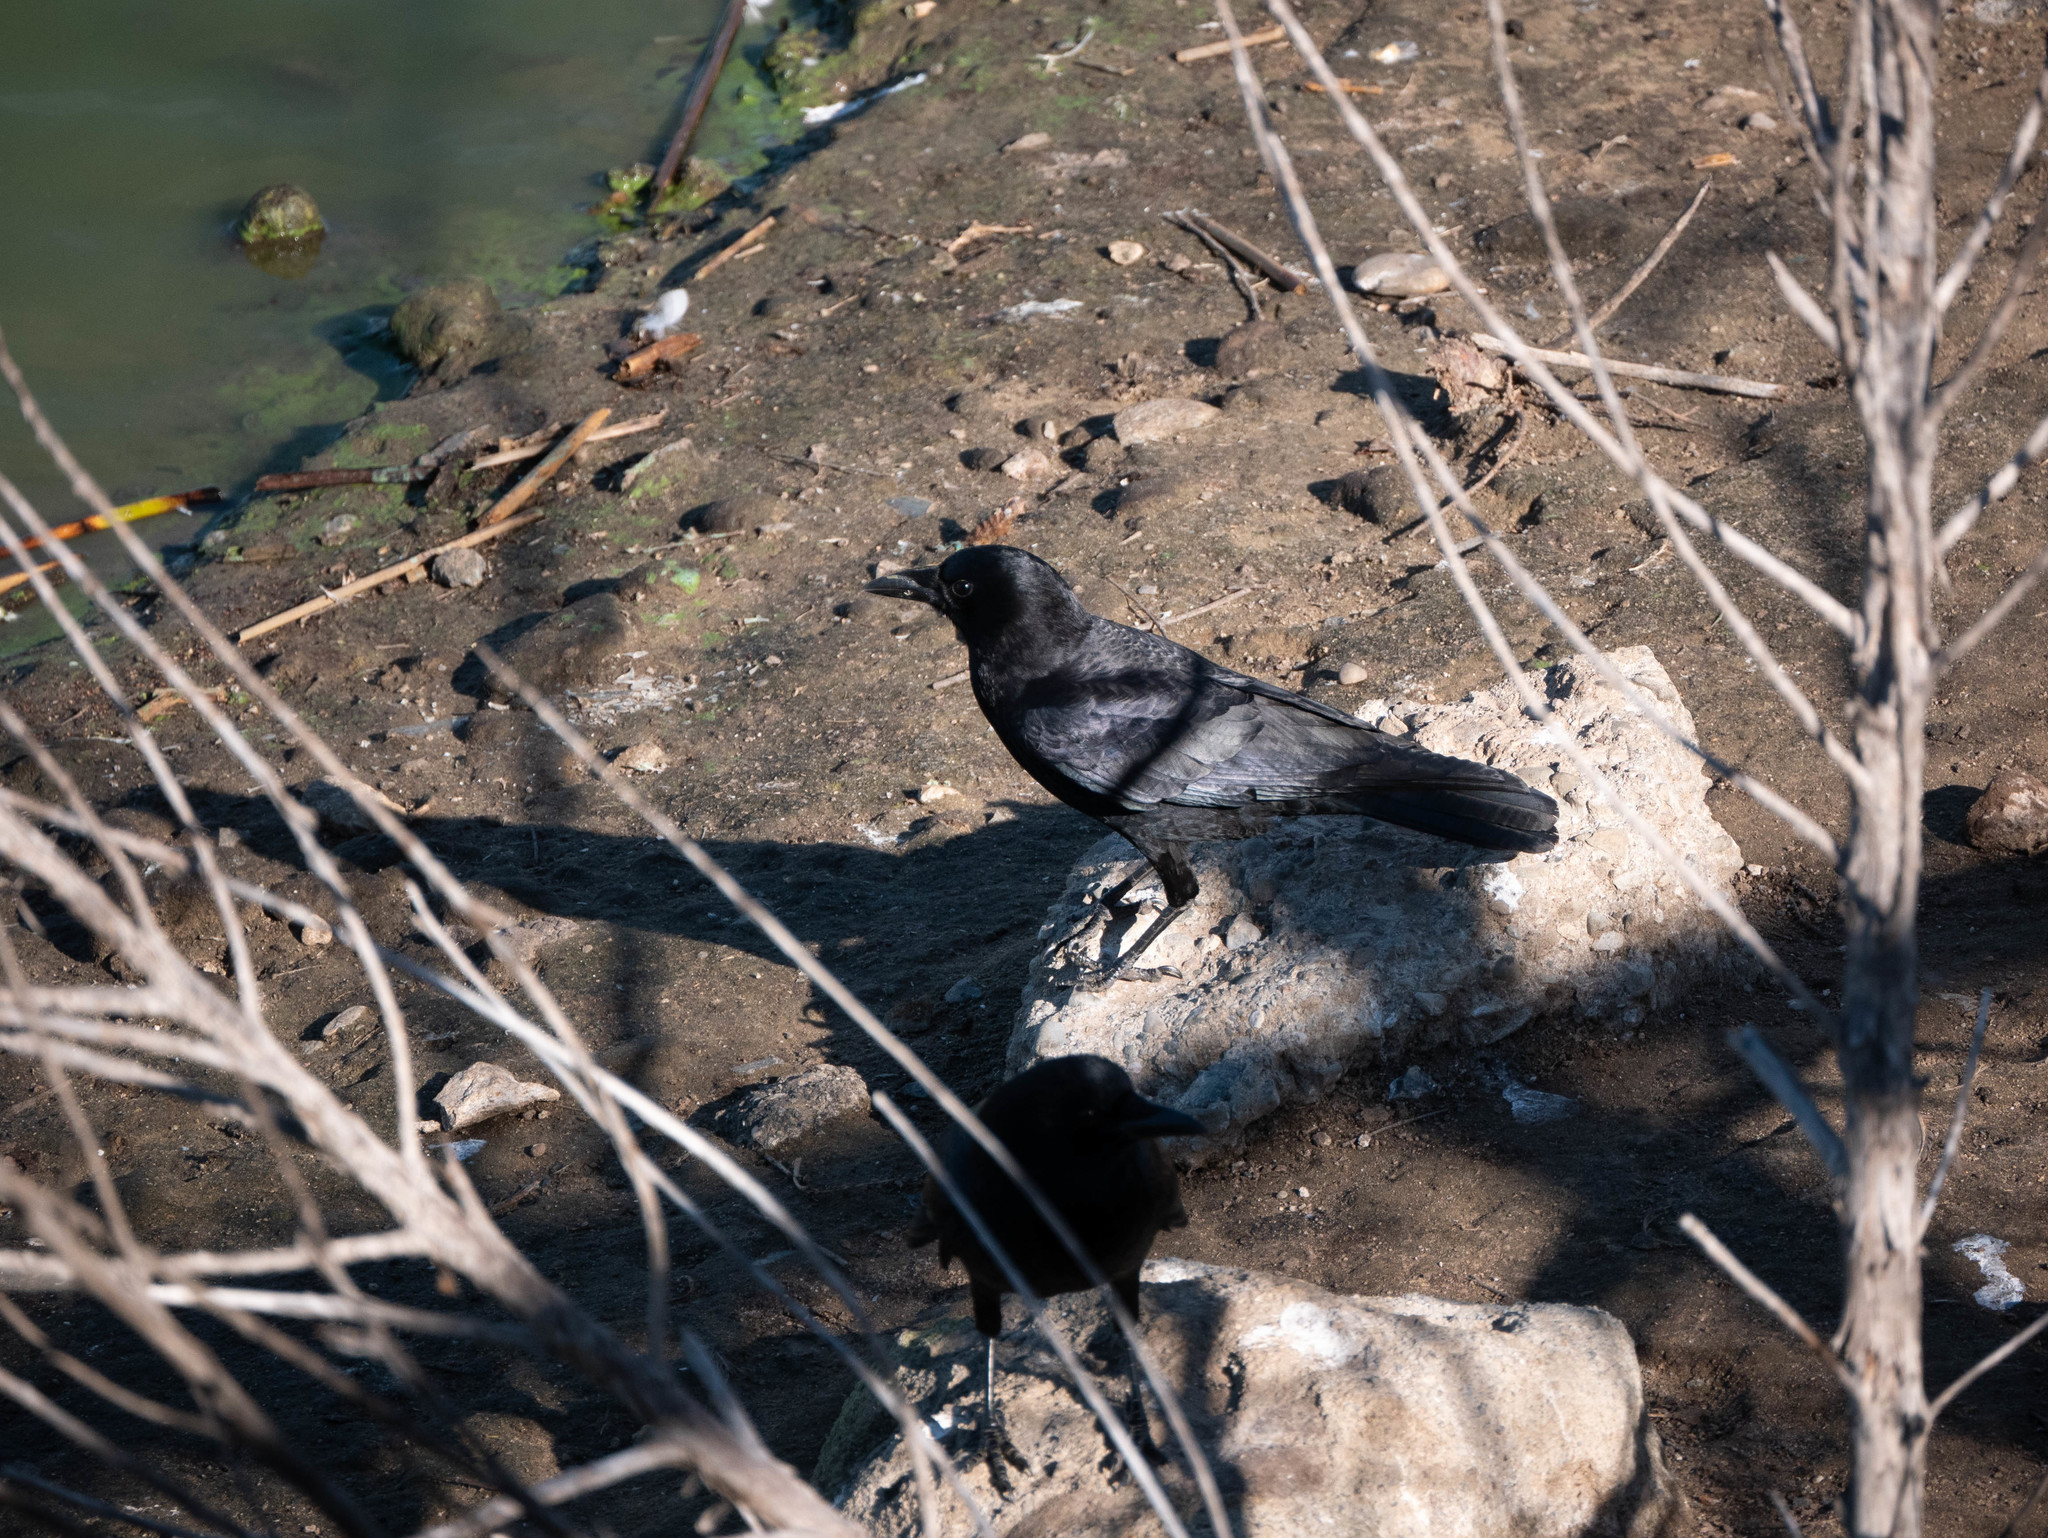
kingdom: Animalia
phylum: Chordata
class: Aves
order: Passeriformes
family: Corvidae
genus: Corvus
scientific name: Corvus brachyrhynchos
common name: American crow
